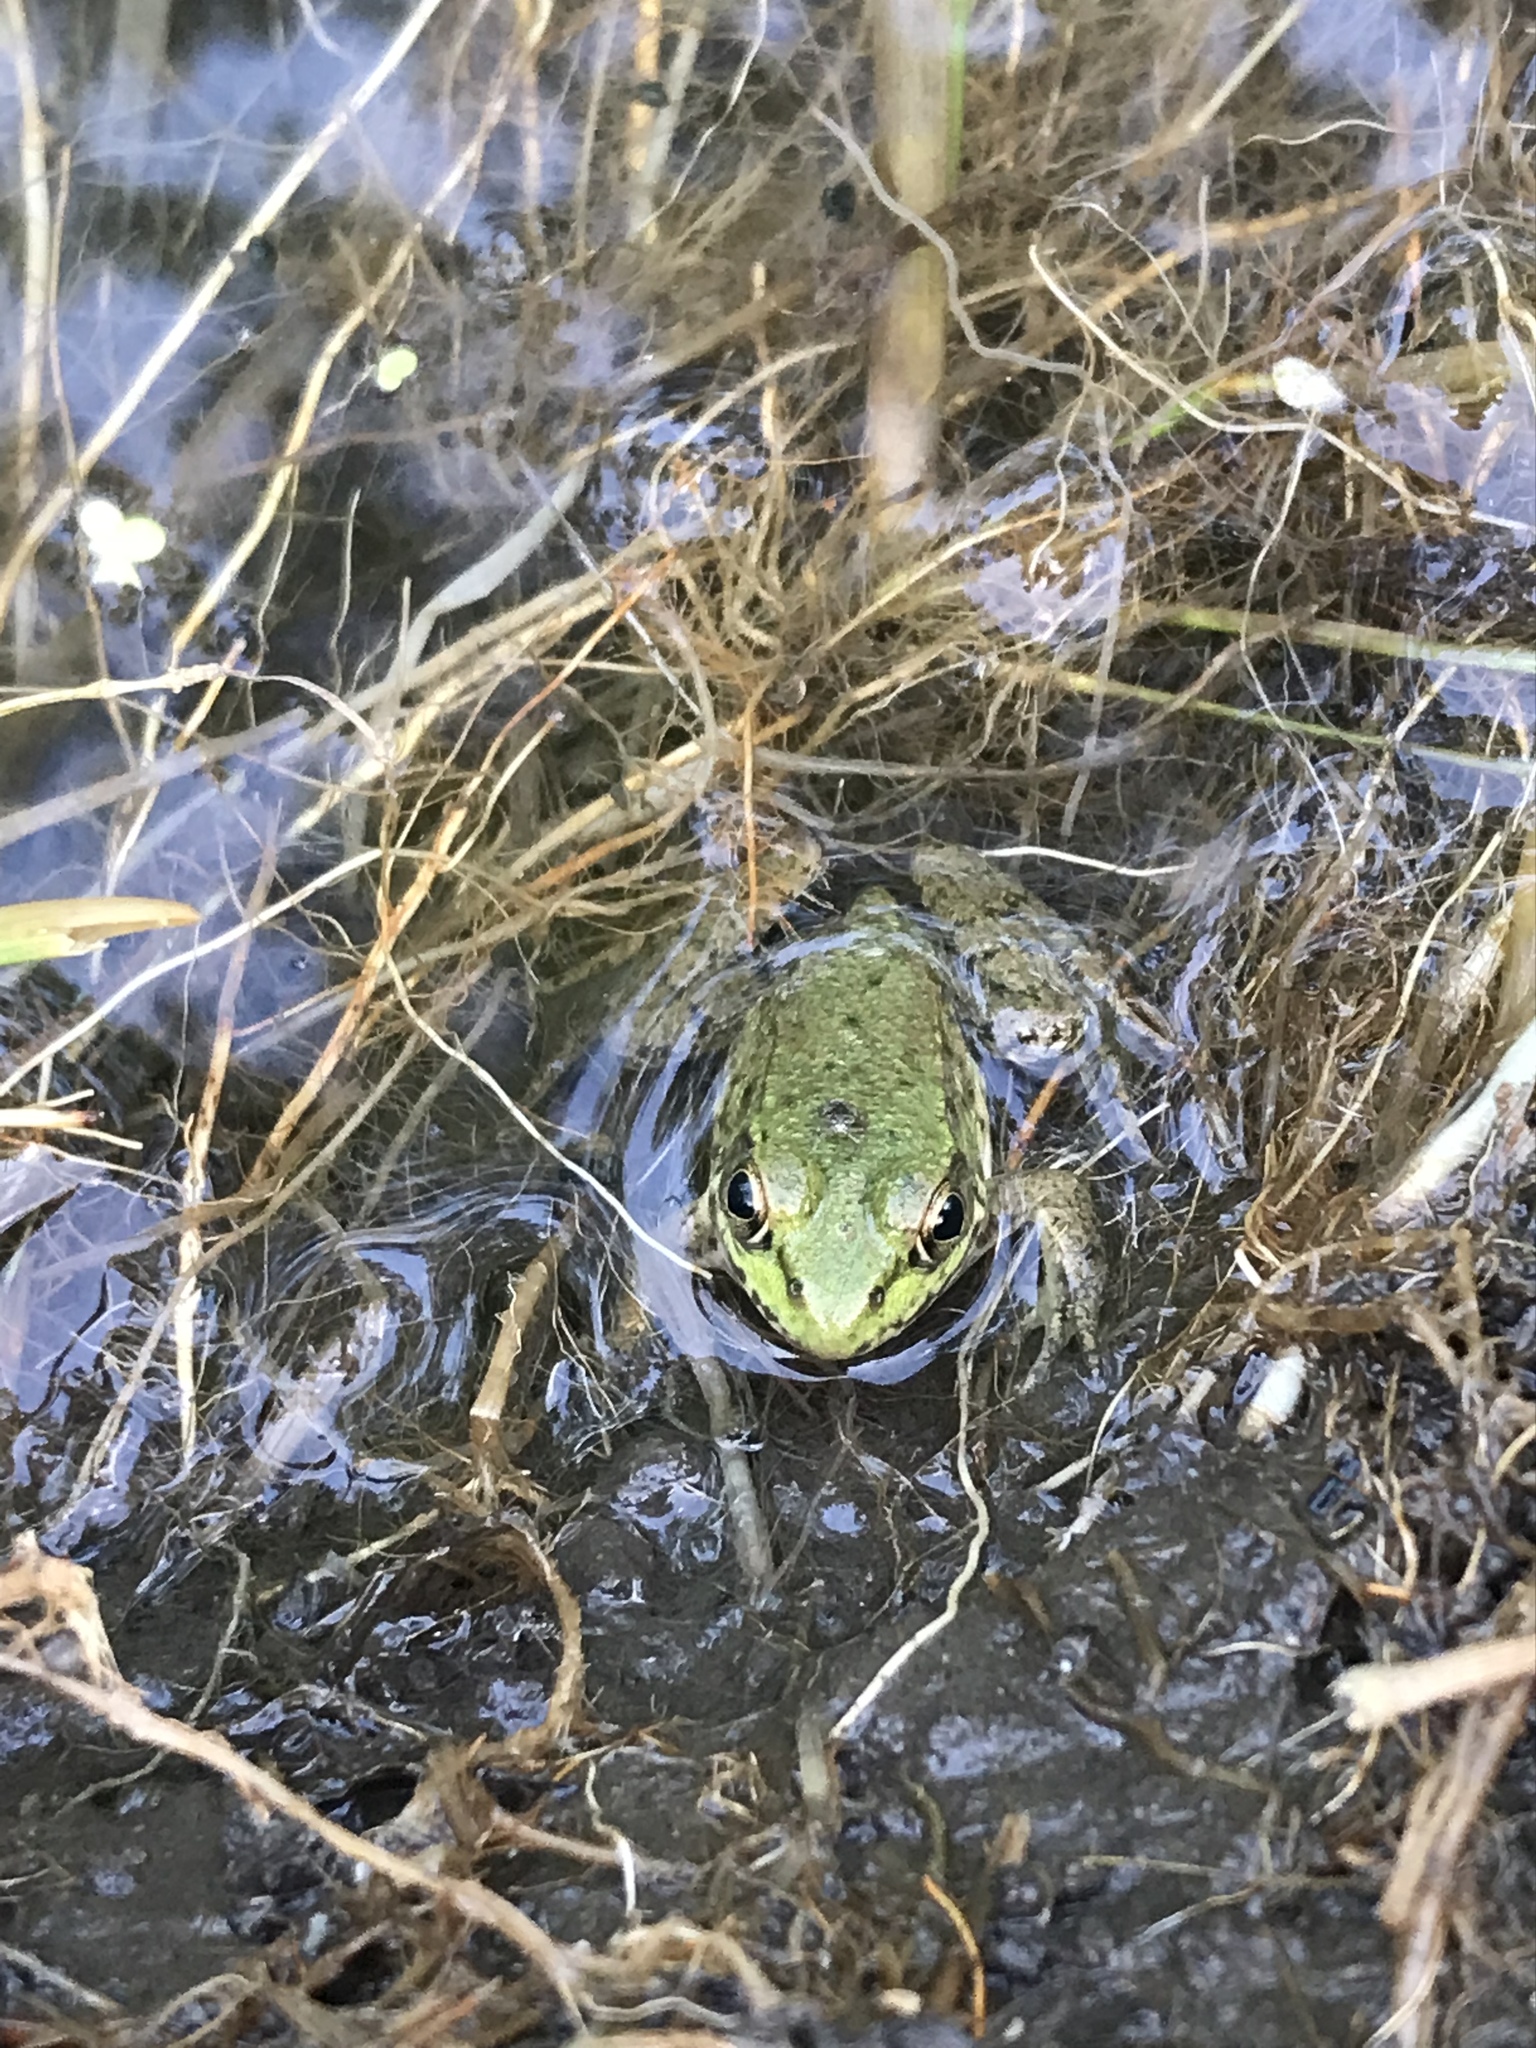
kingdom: Animalia
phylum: Chordata
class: Amphibia
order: Anura
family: Ranidae
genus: Lithobates
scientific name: Lithobates clamitans
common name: Green frog
